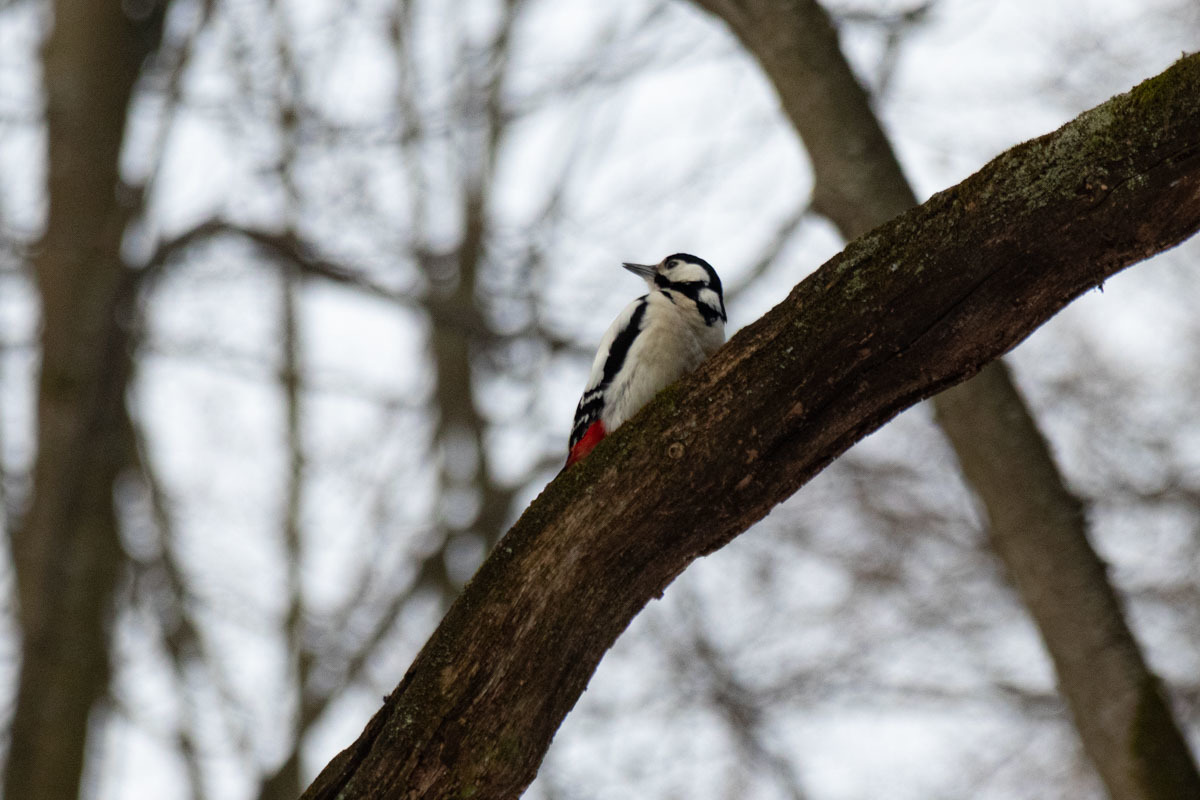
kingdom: Animalia
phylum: Chordata
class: Aves
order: Piciformes
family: Picidae
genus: Dendrocopos
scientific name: Dendrocopos major
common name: Great spotted woodpecker
